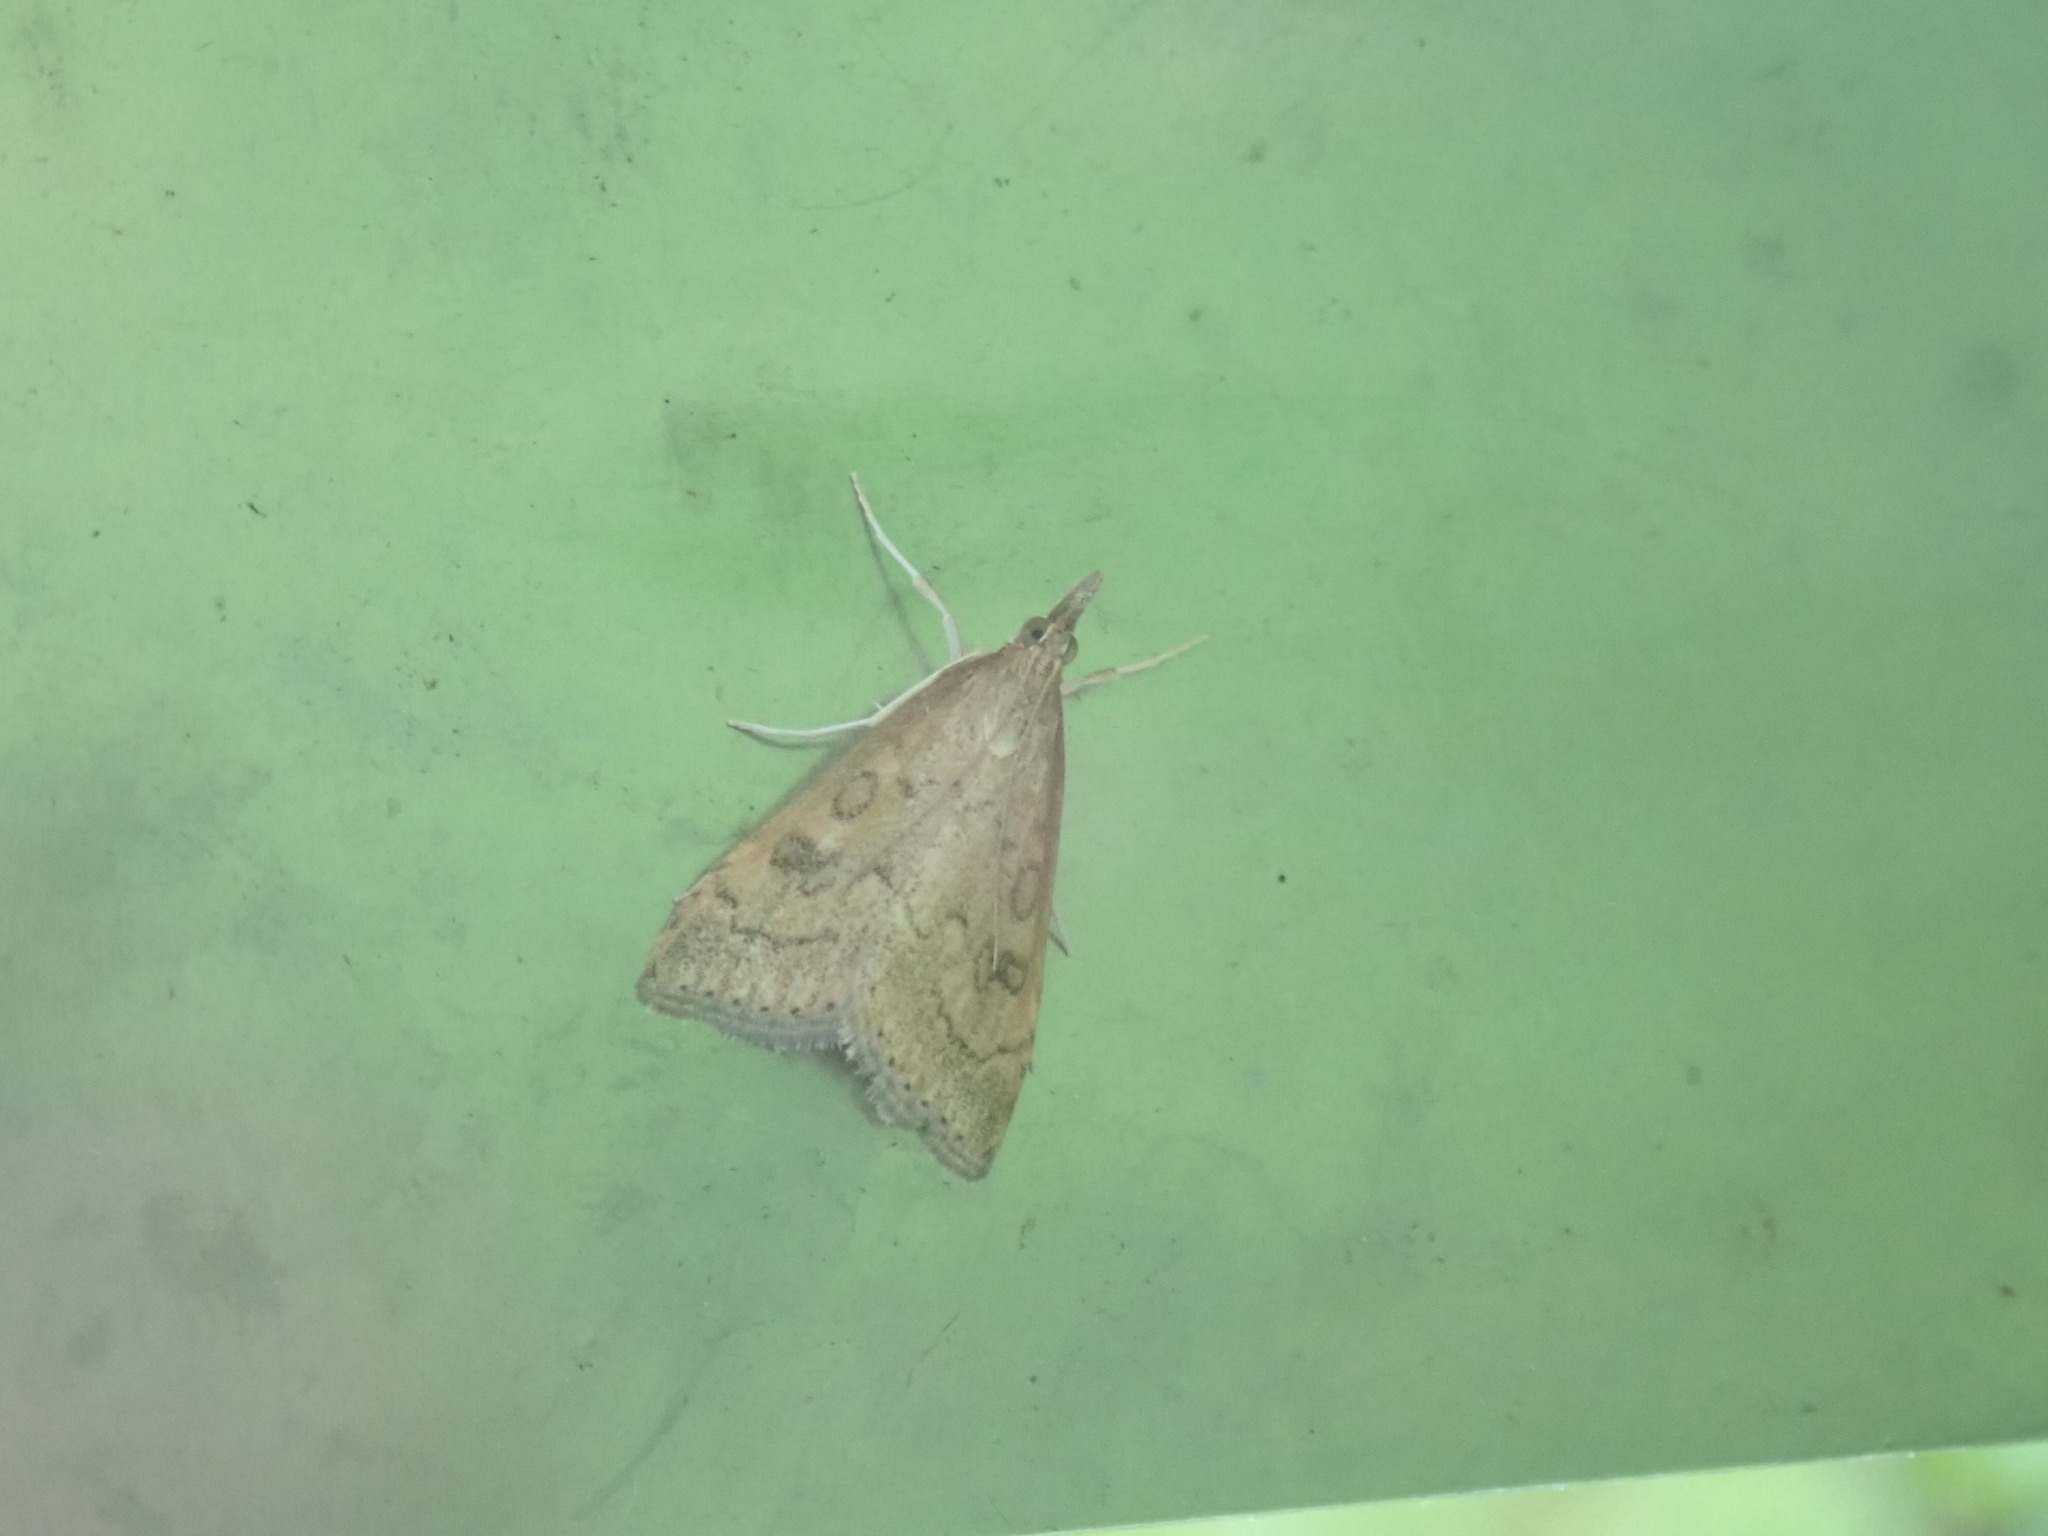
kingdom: Animalia
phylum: Arthropoda
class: Insecta
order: Lepidoptera
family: Crambidae
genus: Udea
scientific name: Udea rubigalis
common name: Celery leaftier moth
